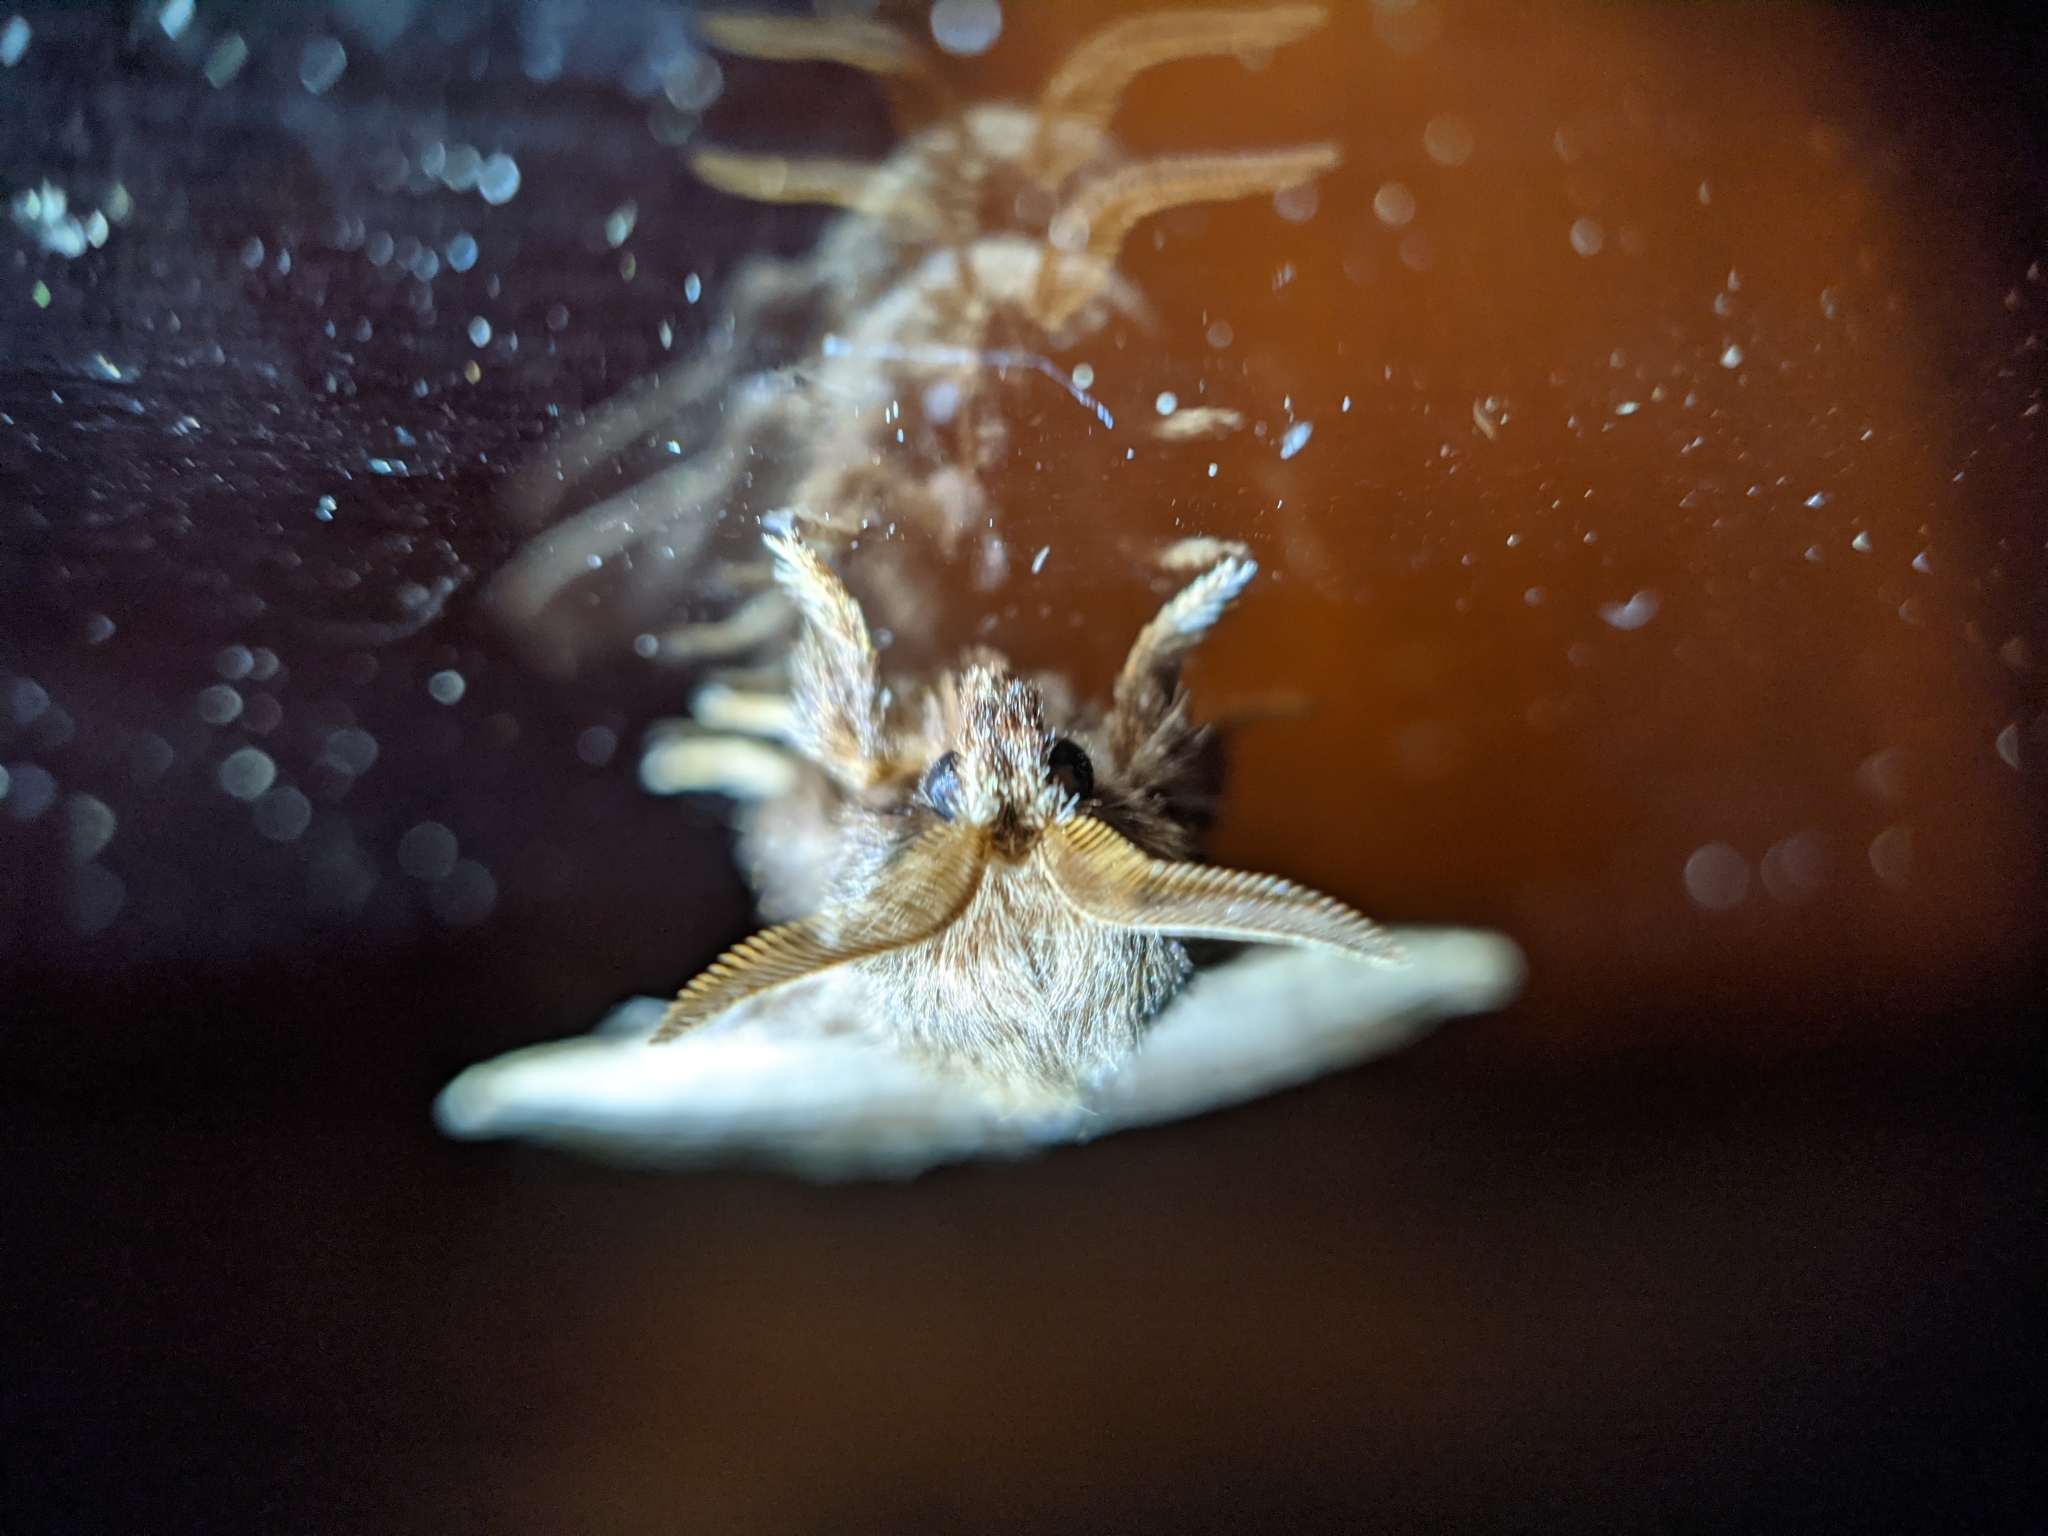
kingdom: Animalia
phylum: Arthropoda
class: Insecta
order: Lepidoptera
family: Lasiocampidae
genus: Malacosoma
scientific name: Malacosoma americana
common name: Eastern tent caterpillar moth
